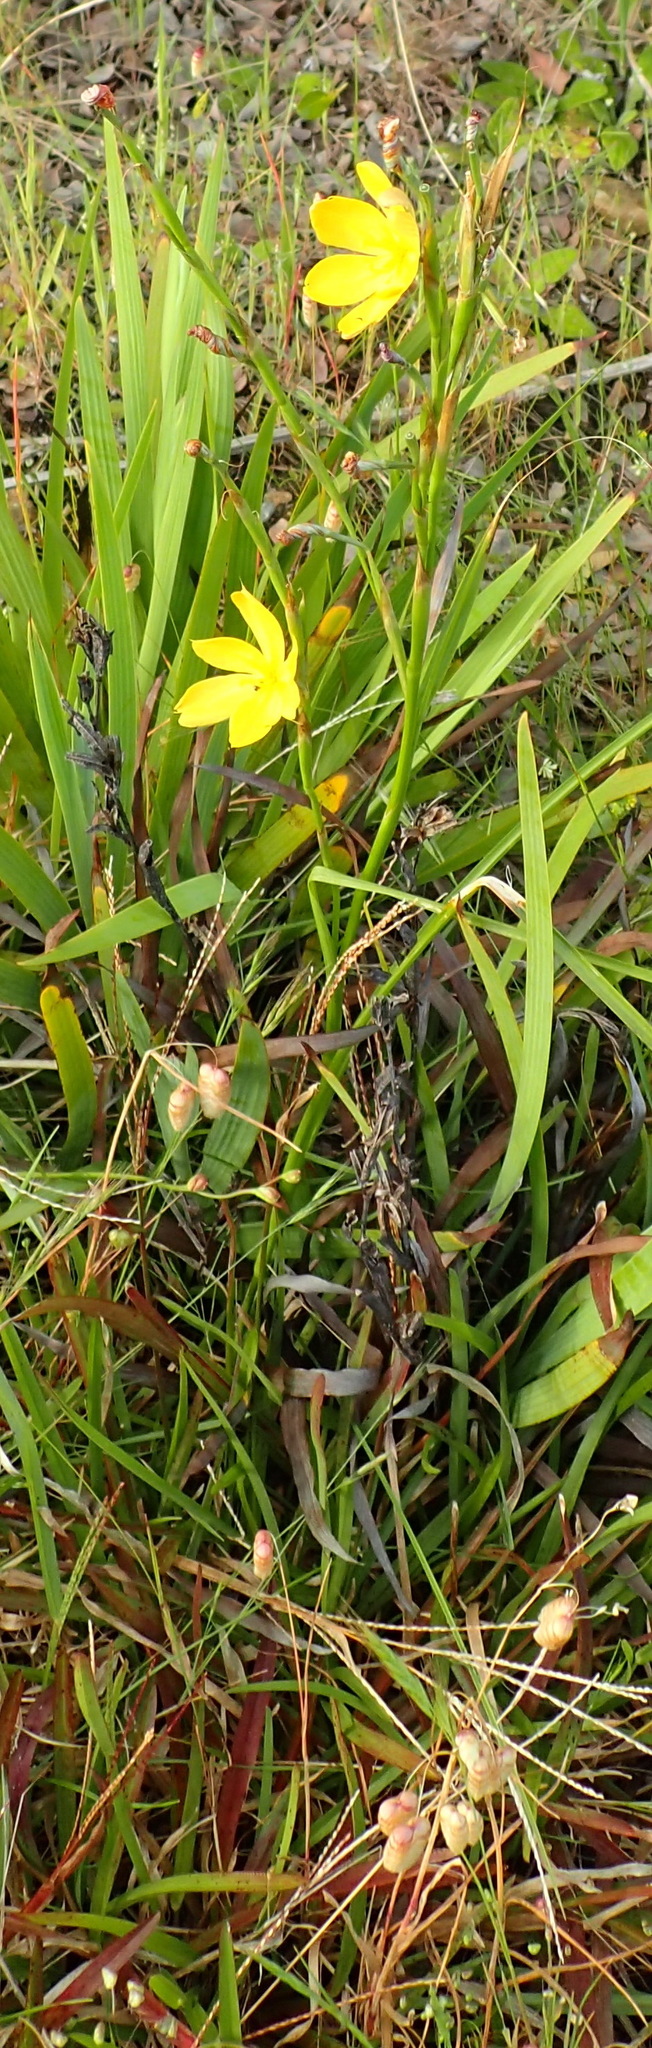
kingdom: Plantae
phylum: Tracheophyta
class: Liliopsida
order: Asparagales
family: Iridaceae
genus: Moraea
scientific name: Moraea lewisiae
